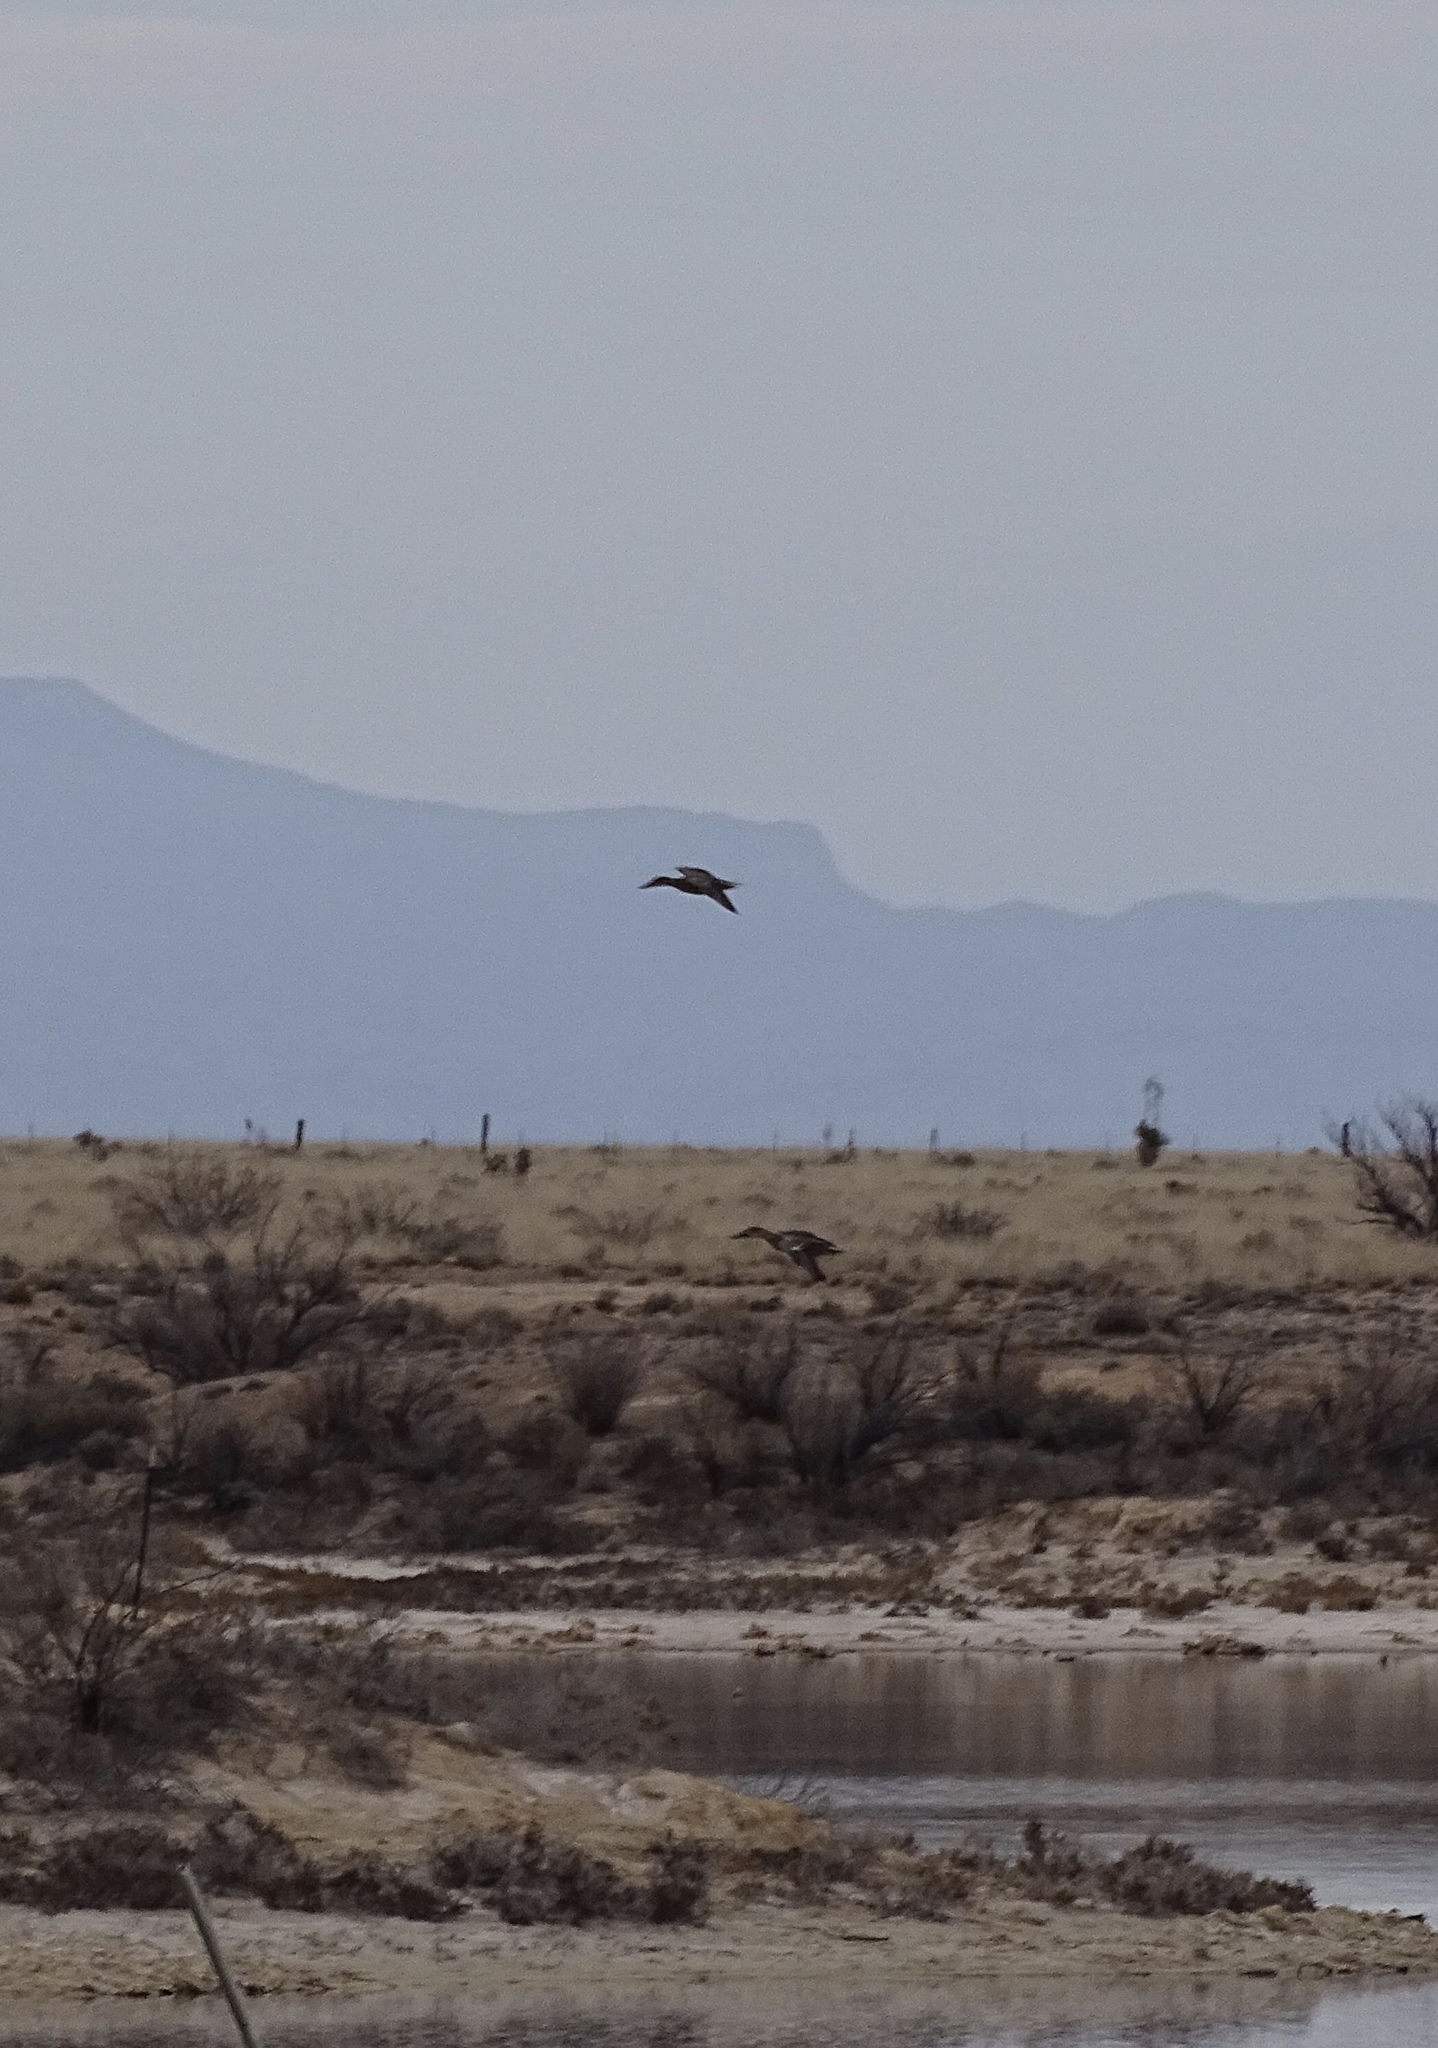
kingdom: Animalia
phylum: Chordata
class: Aves
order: Anseriformes
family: Anatidae
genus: Spatula
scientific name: Spatula clypeata
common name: Northern shoveler
